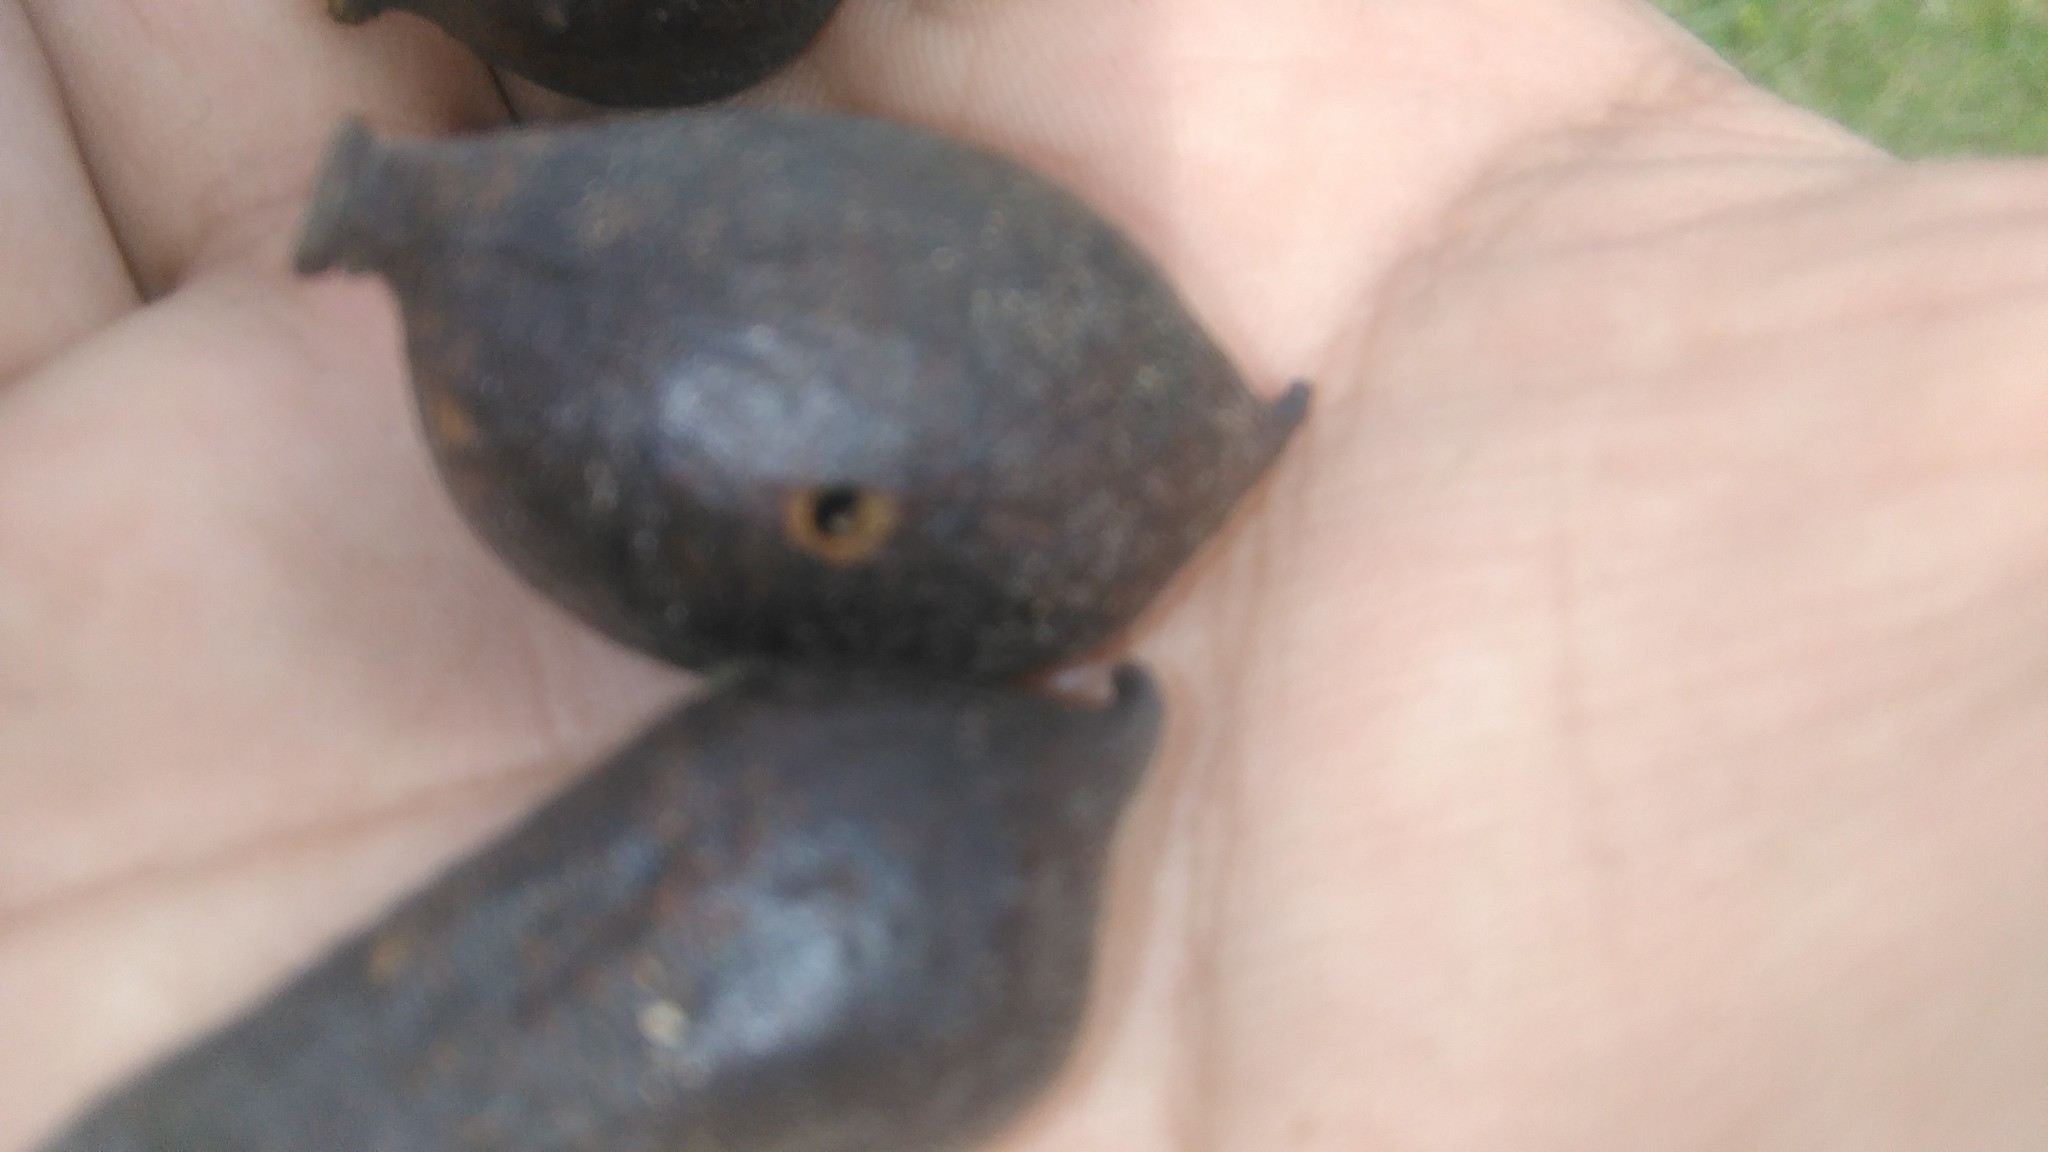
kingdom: Plantae
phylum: Tracheophyta
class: Magnoliopsida
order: Fabales
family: Fabaceae
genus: Vachellia
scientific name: Vachellia caven
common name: Roman cassie
